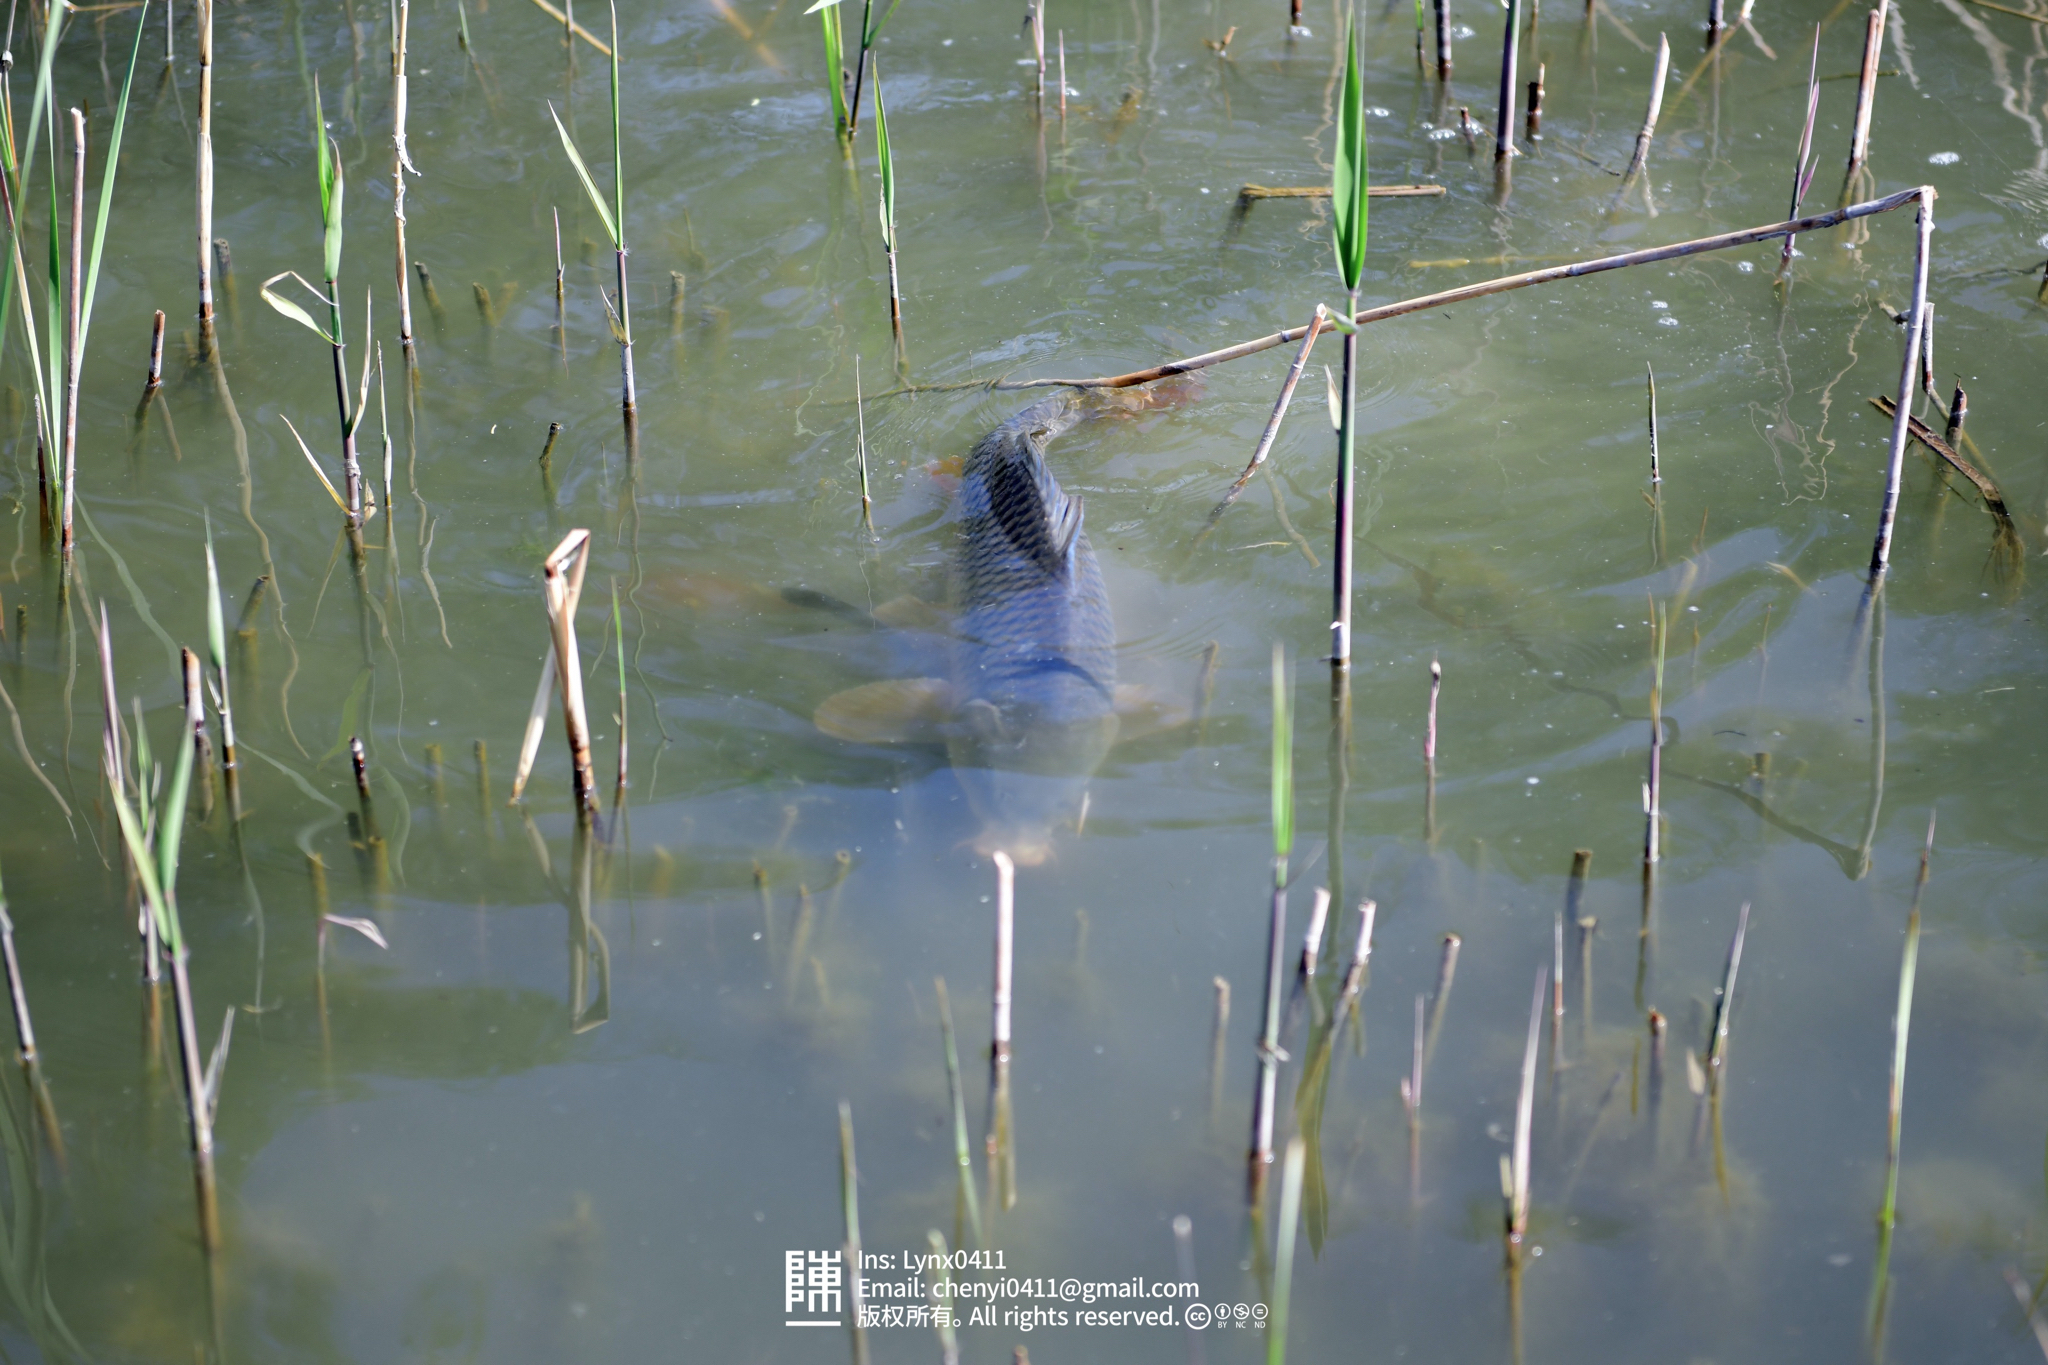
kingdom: Animalia
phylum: Chordata
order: Cypriniformes
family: Cyprinidae
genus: Cyprinus
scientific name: Cyprinus carpio
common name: Common carp
